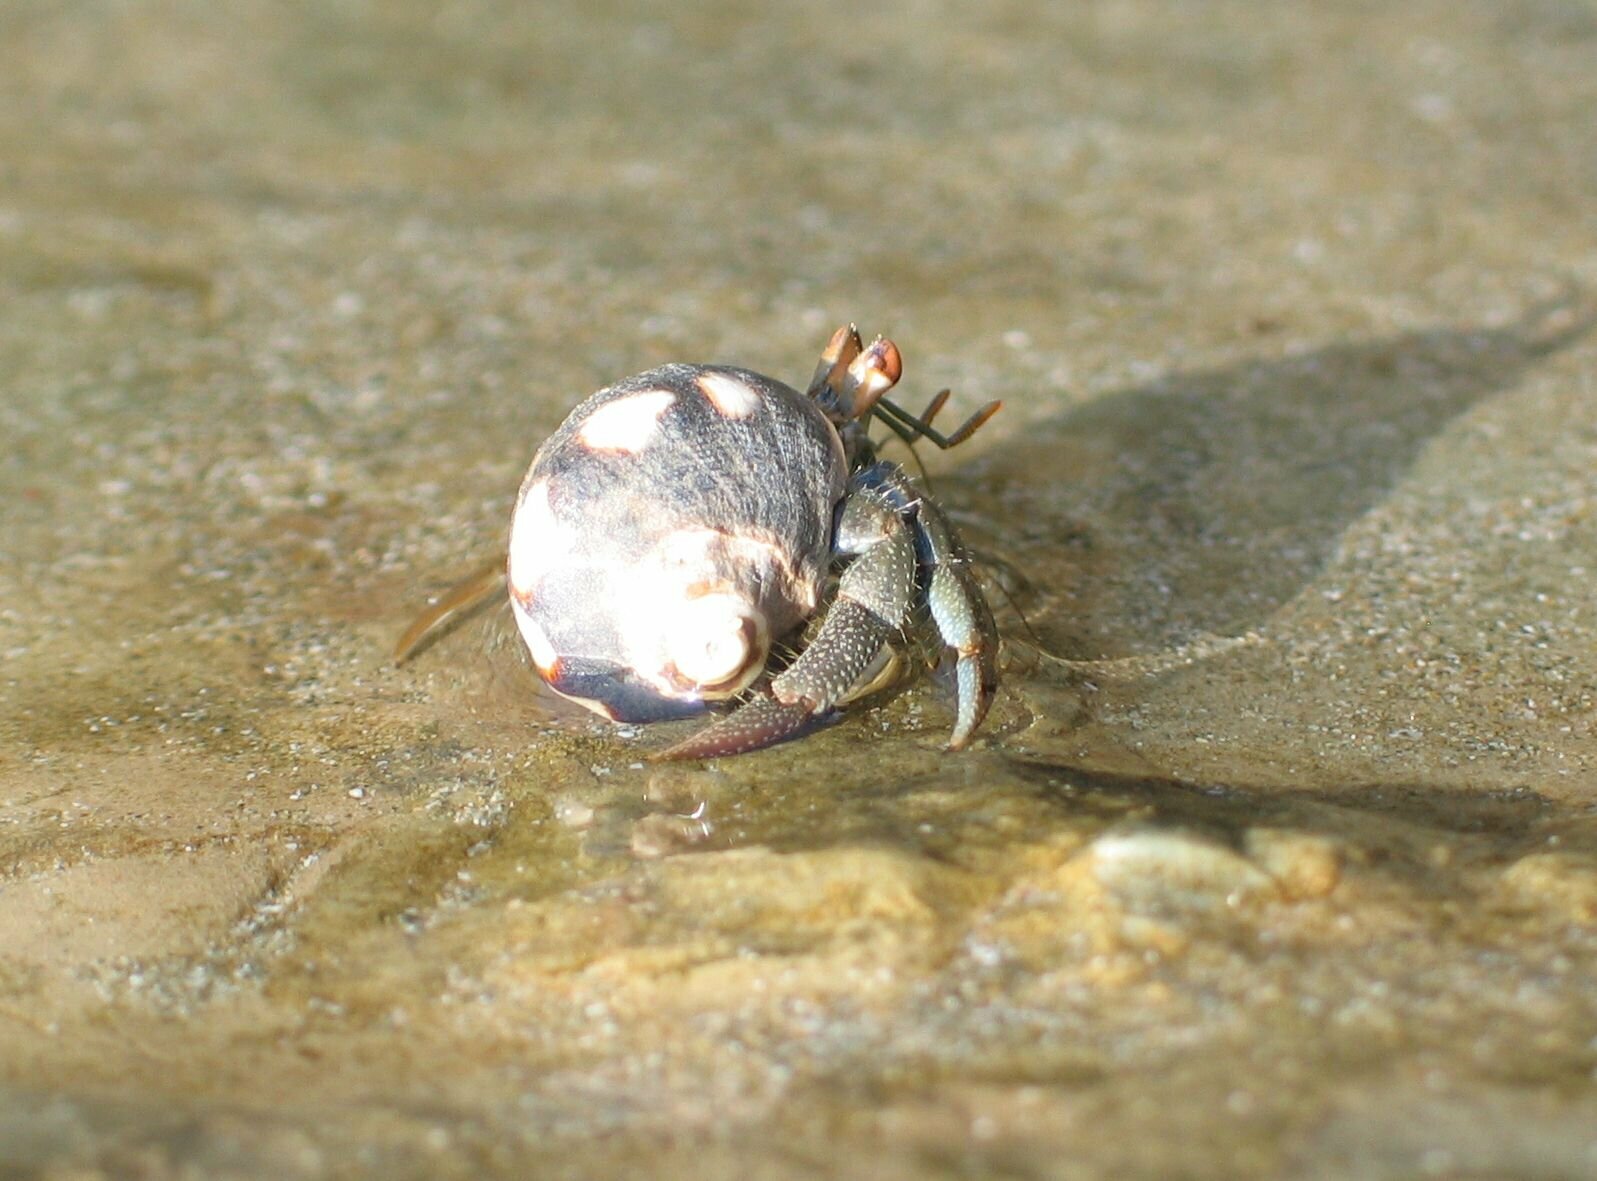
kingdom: Animalia
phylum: Arthropoda
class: Malacostraca
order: Decapoda
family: Coenobitidae
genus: Coenobita
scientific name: Coenobita compressus
